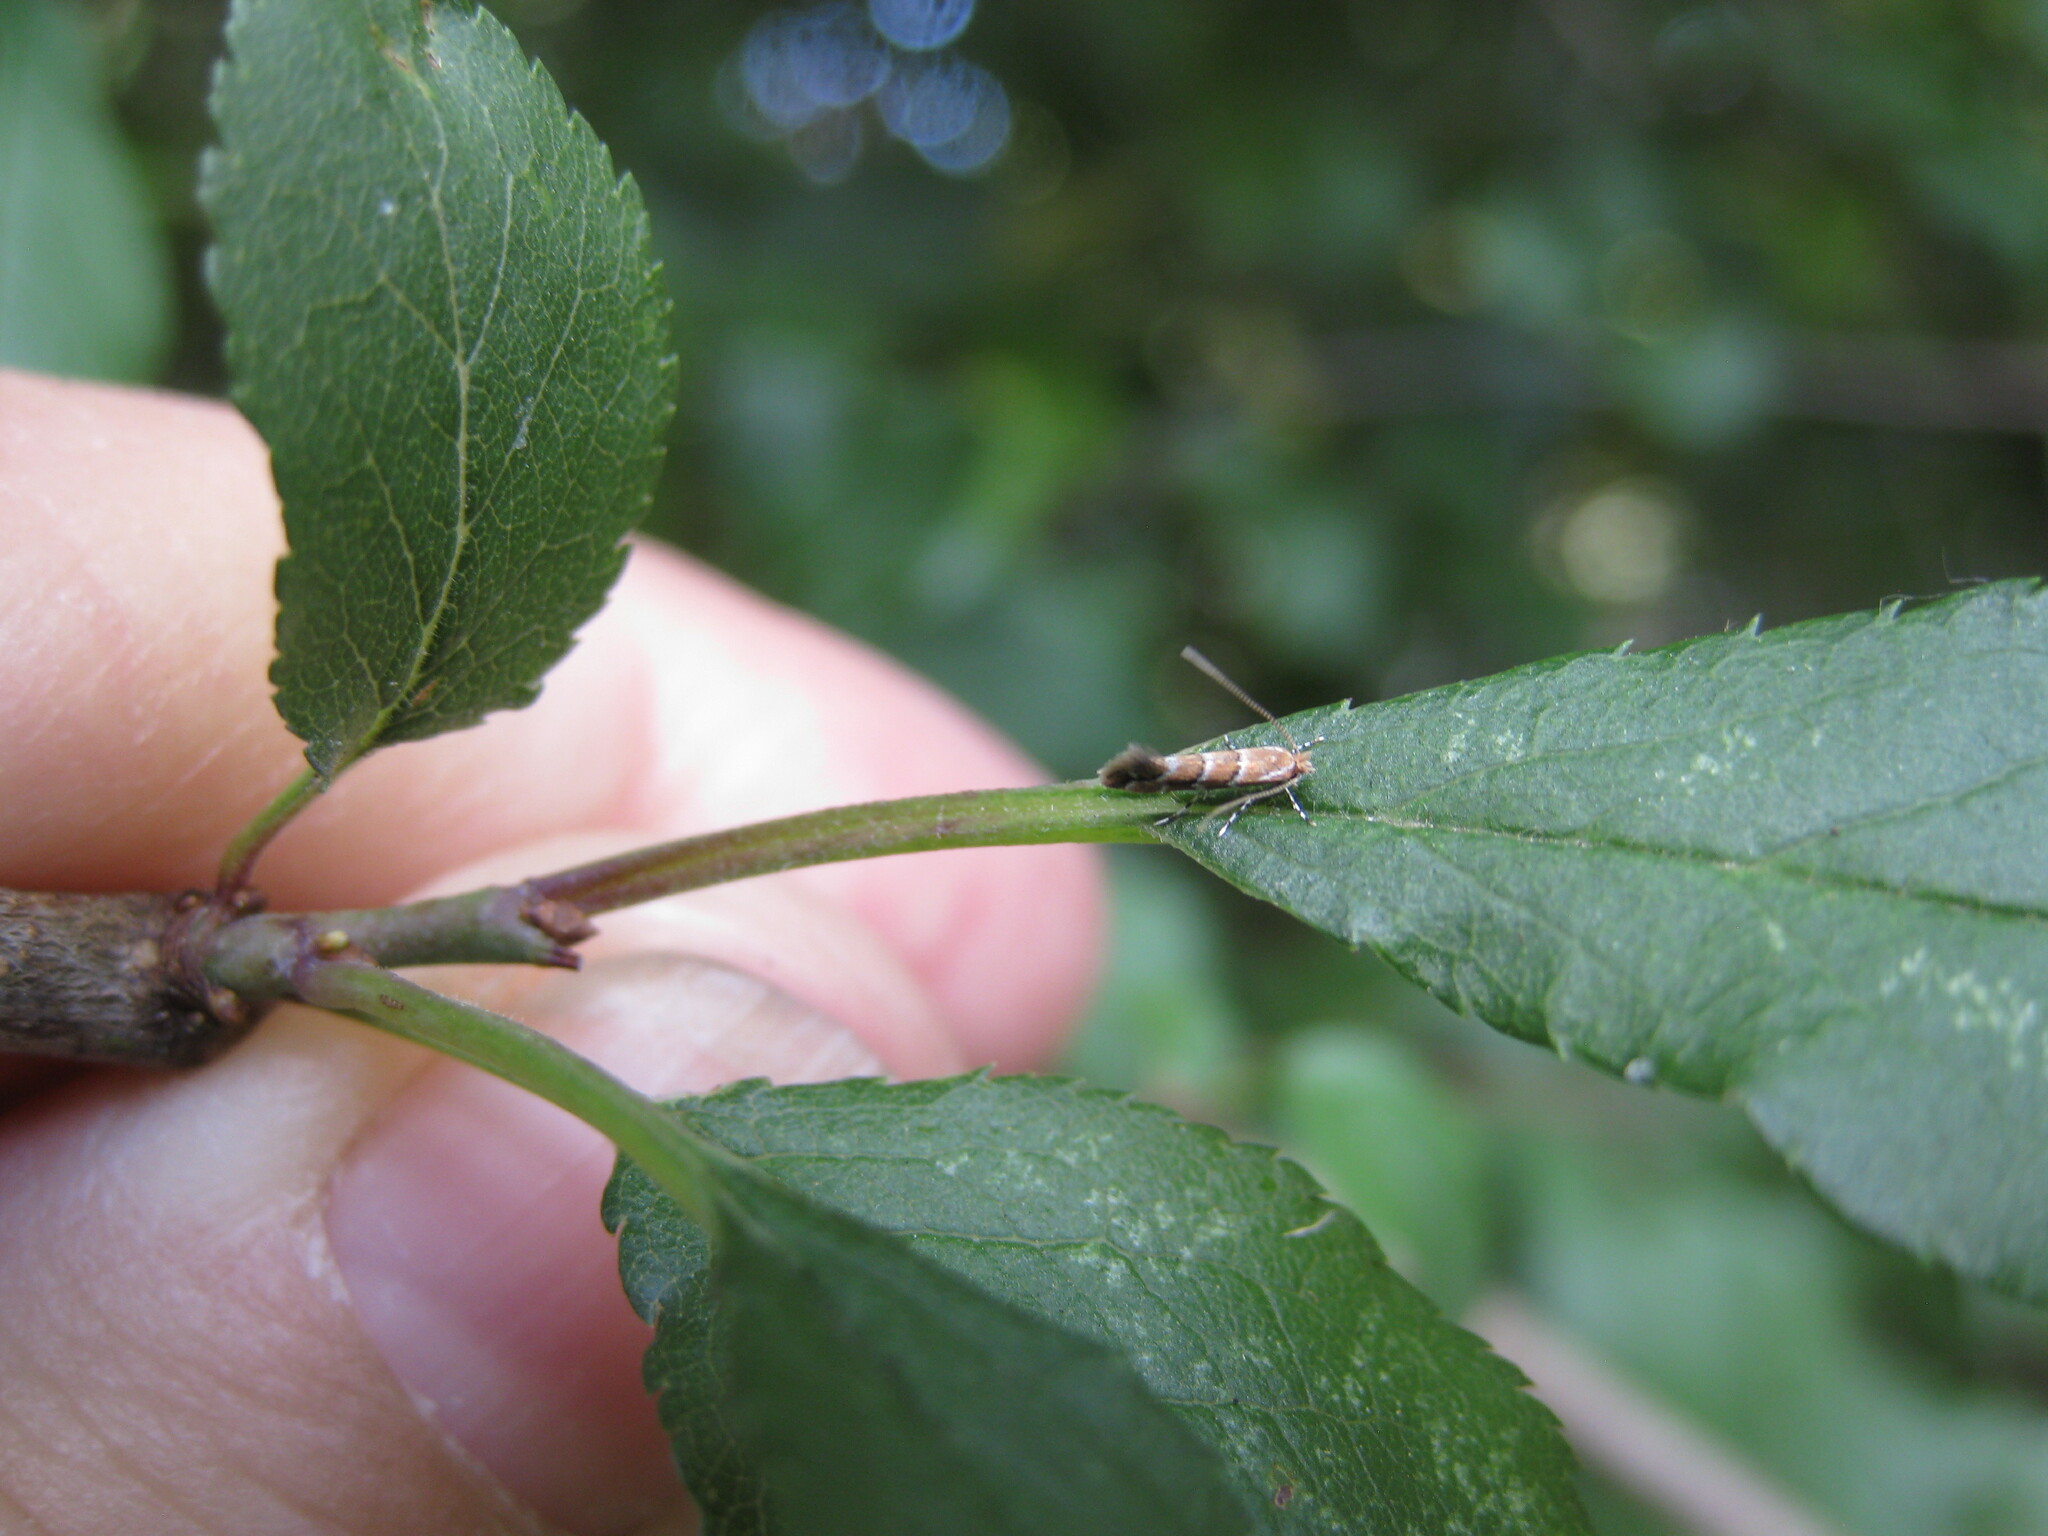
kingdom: Animalia
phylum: Arthropoda
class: Insecta
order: Lepidoptera
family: Gracillariidae
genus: Cameraria
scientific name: Cameraria ohridella
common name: Horse-chestnut leaf-miner
